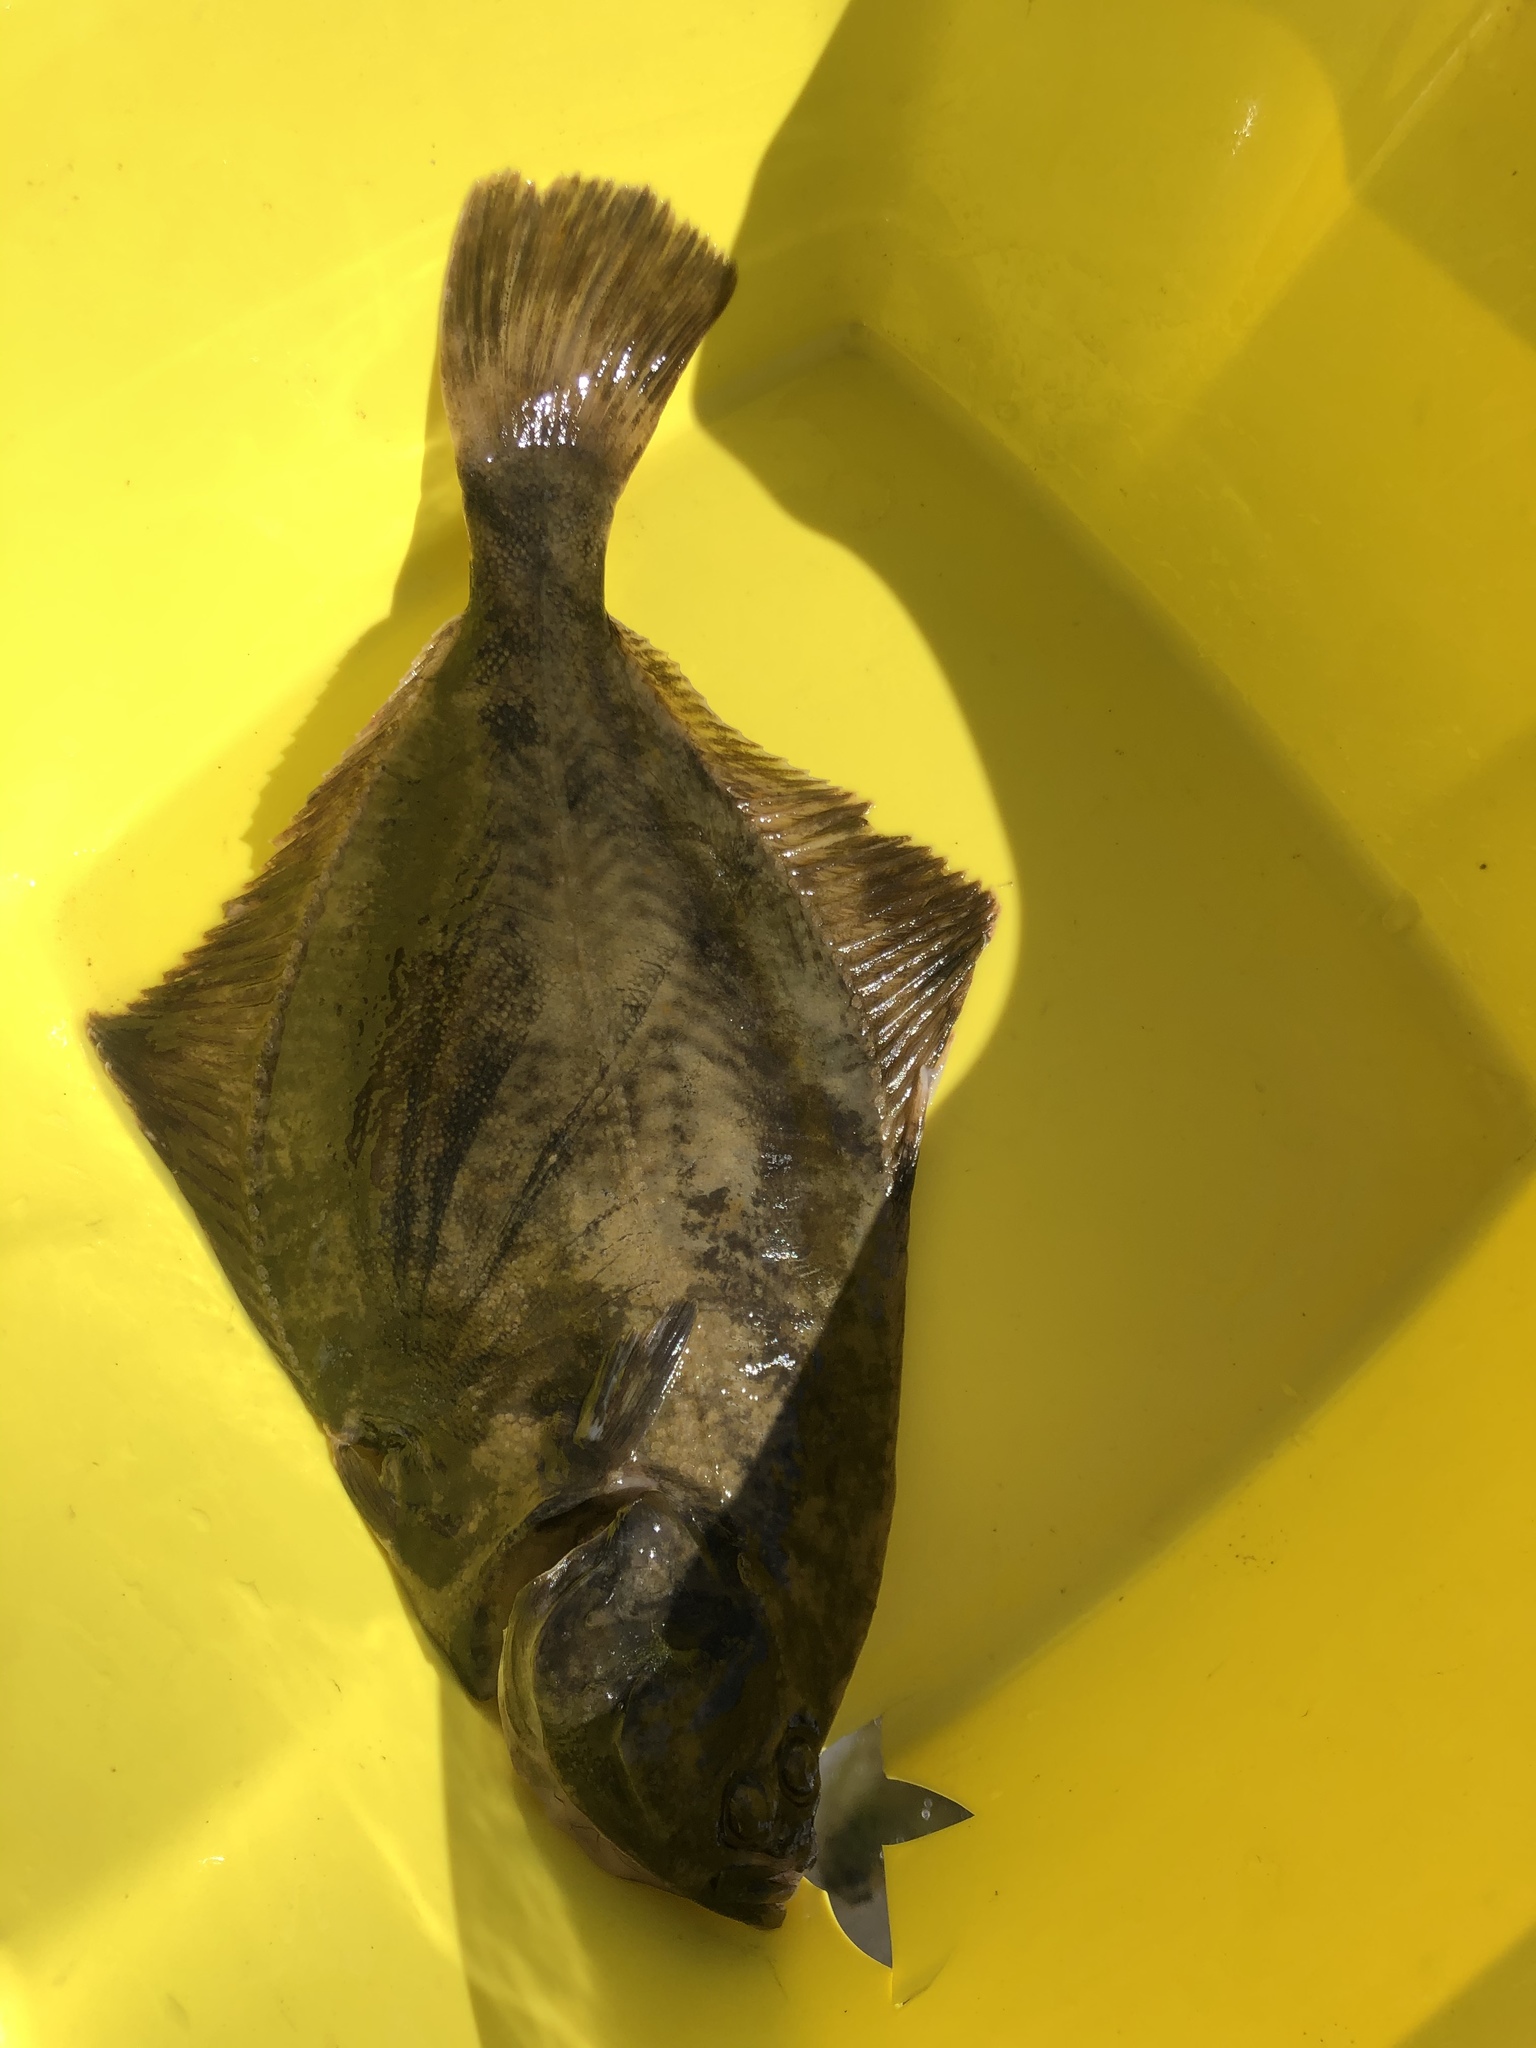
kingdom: Animalia
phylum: Chordata
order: Pleuronectiformes
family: Pleuronectidae
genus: Platichthys
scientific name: Platichthys flesus
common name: European flounder
